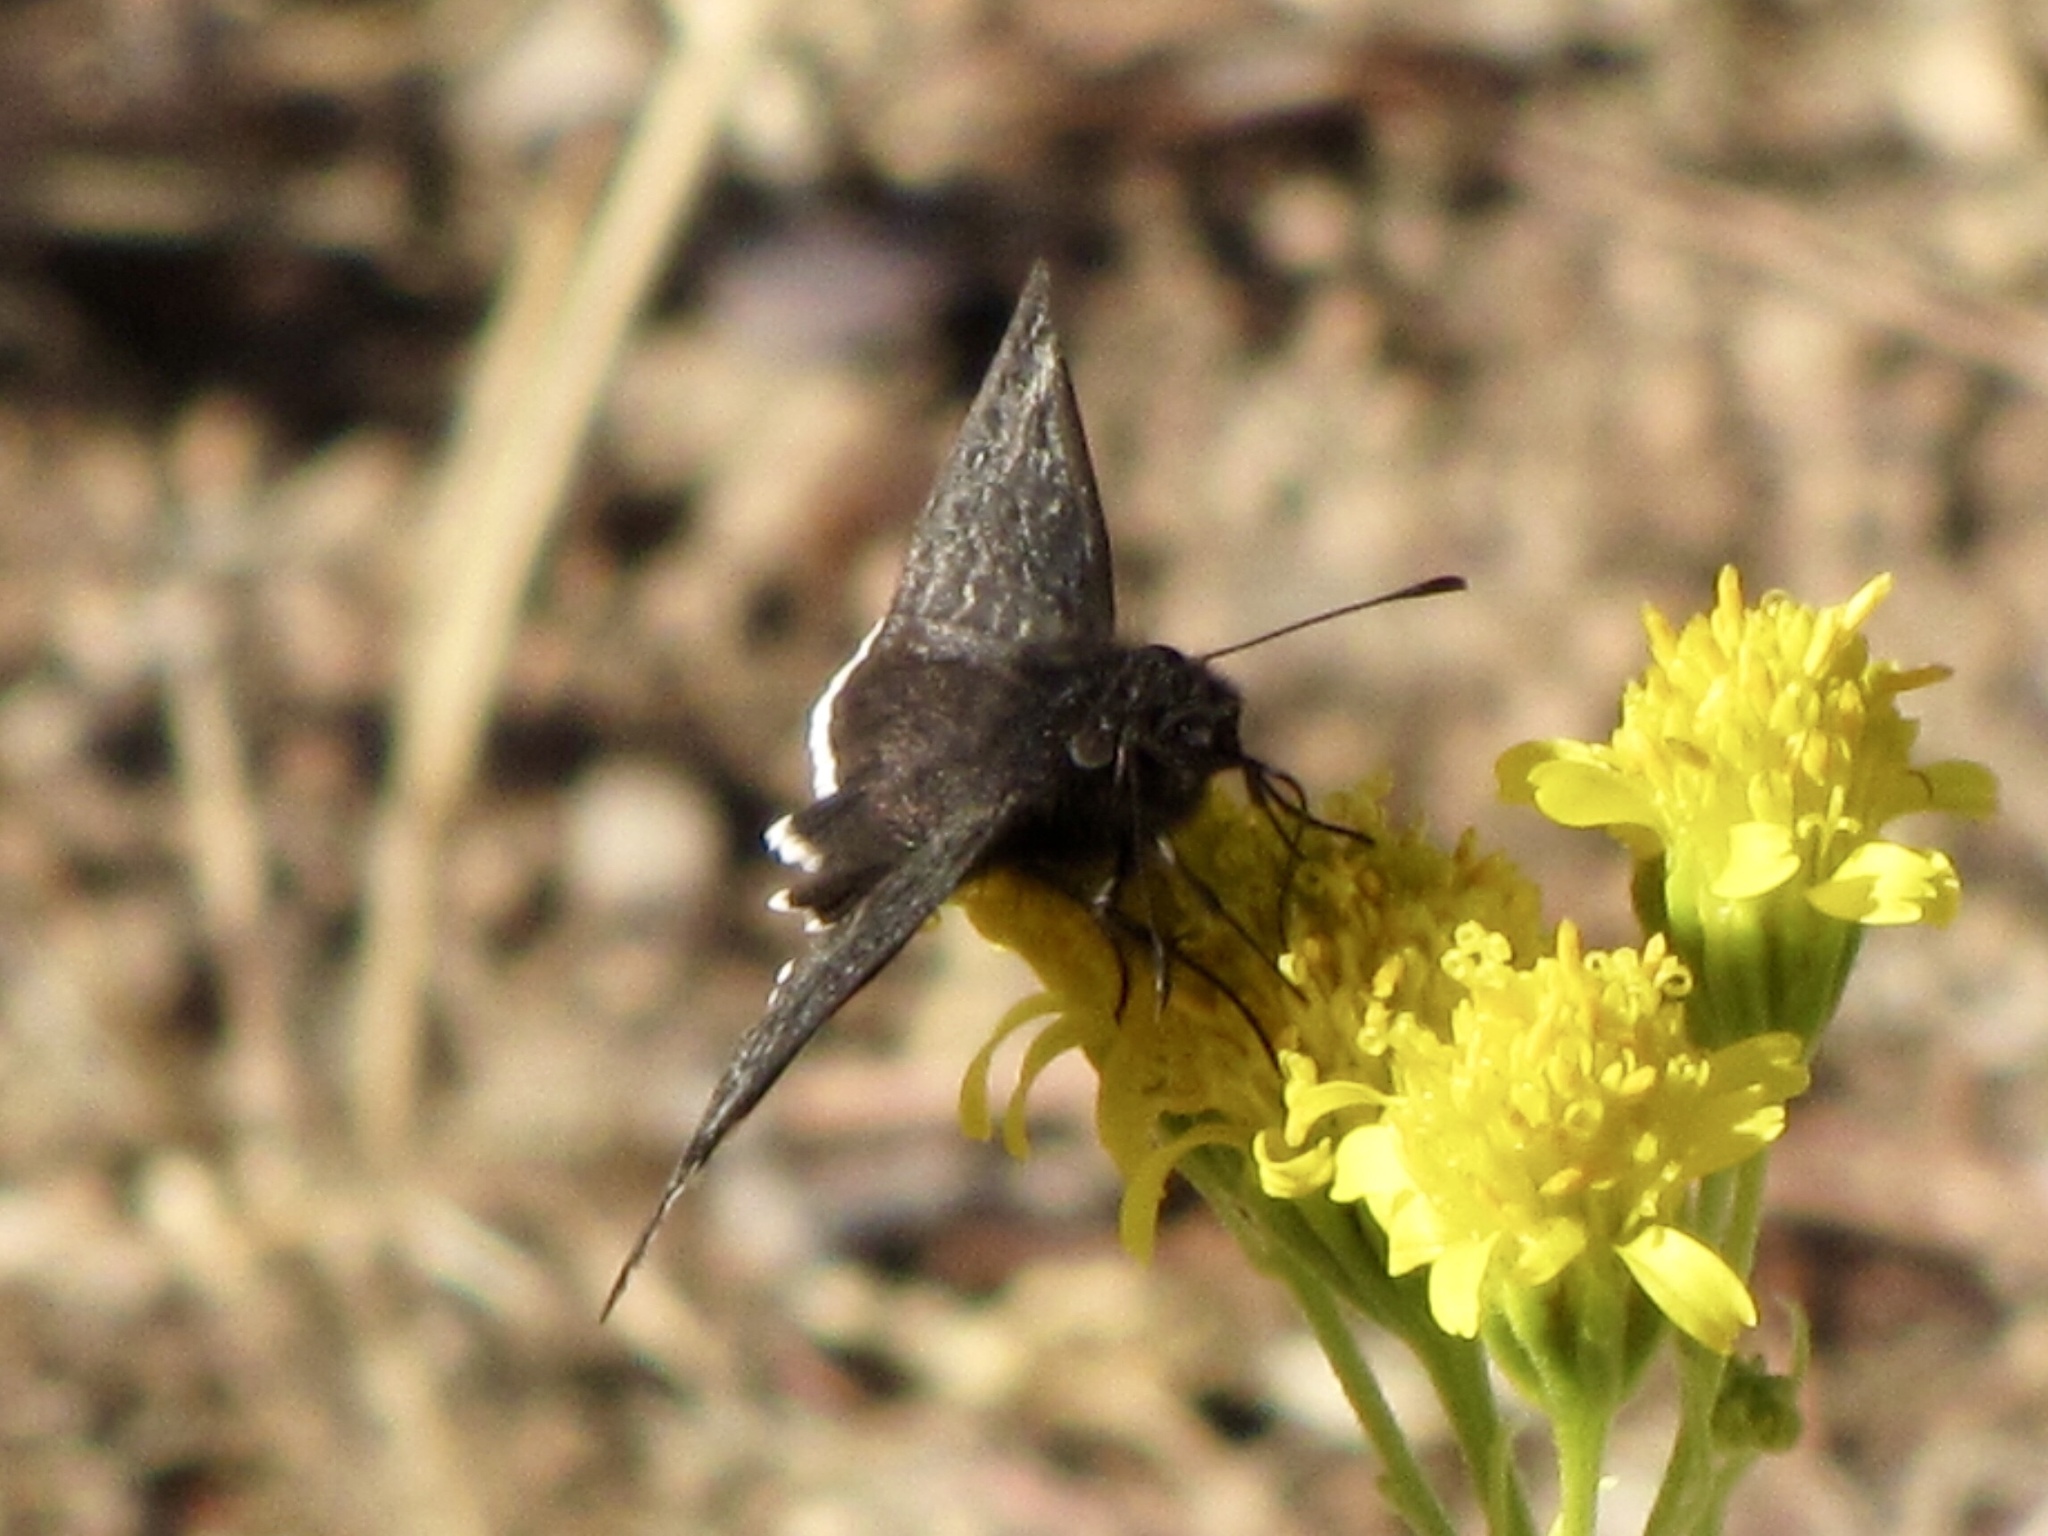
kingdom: Animalia
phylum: Arthropoda
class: Insecta
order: Lepidoptera
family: Hesperiidae
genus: Erynnis
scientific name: Erynnis funeralis
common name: Funereal duskywing
